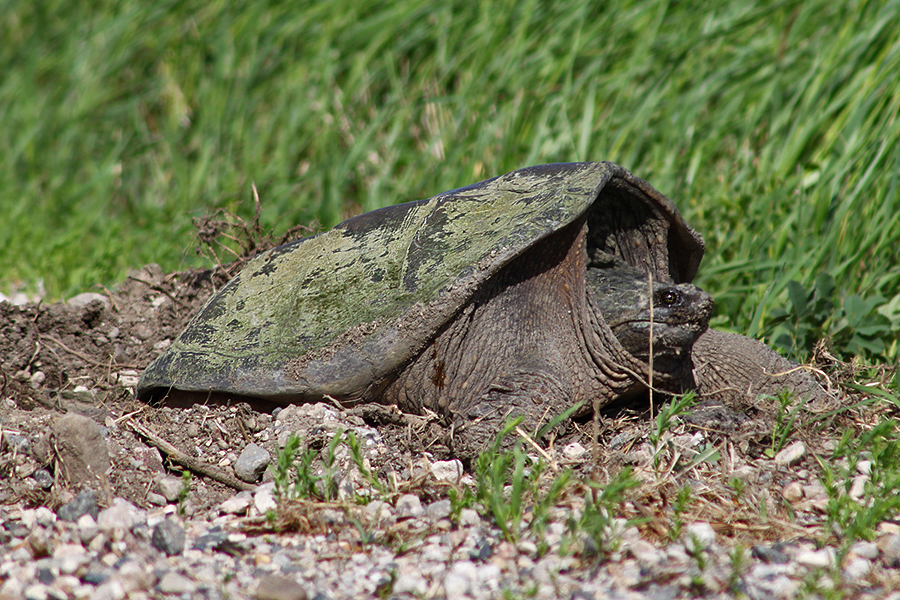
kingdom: Animalia
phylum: Chordata
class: Testudines
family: Chelydridae
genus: Chelydra
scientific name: Chelydra serpentina
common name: Common snapping turtle
